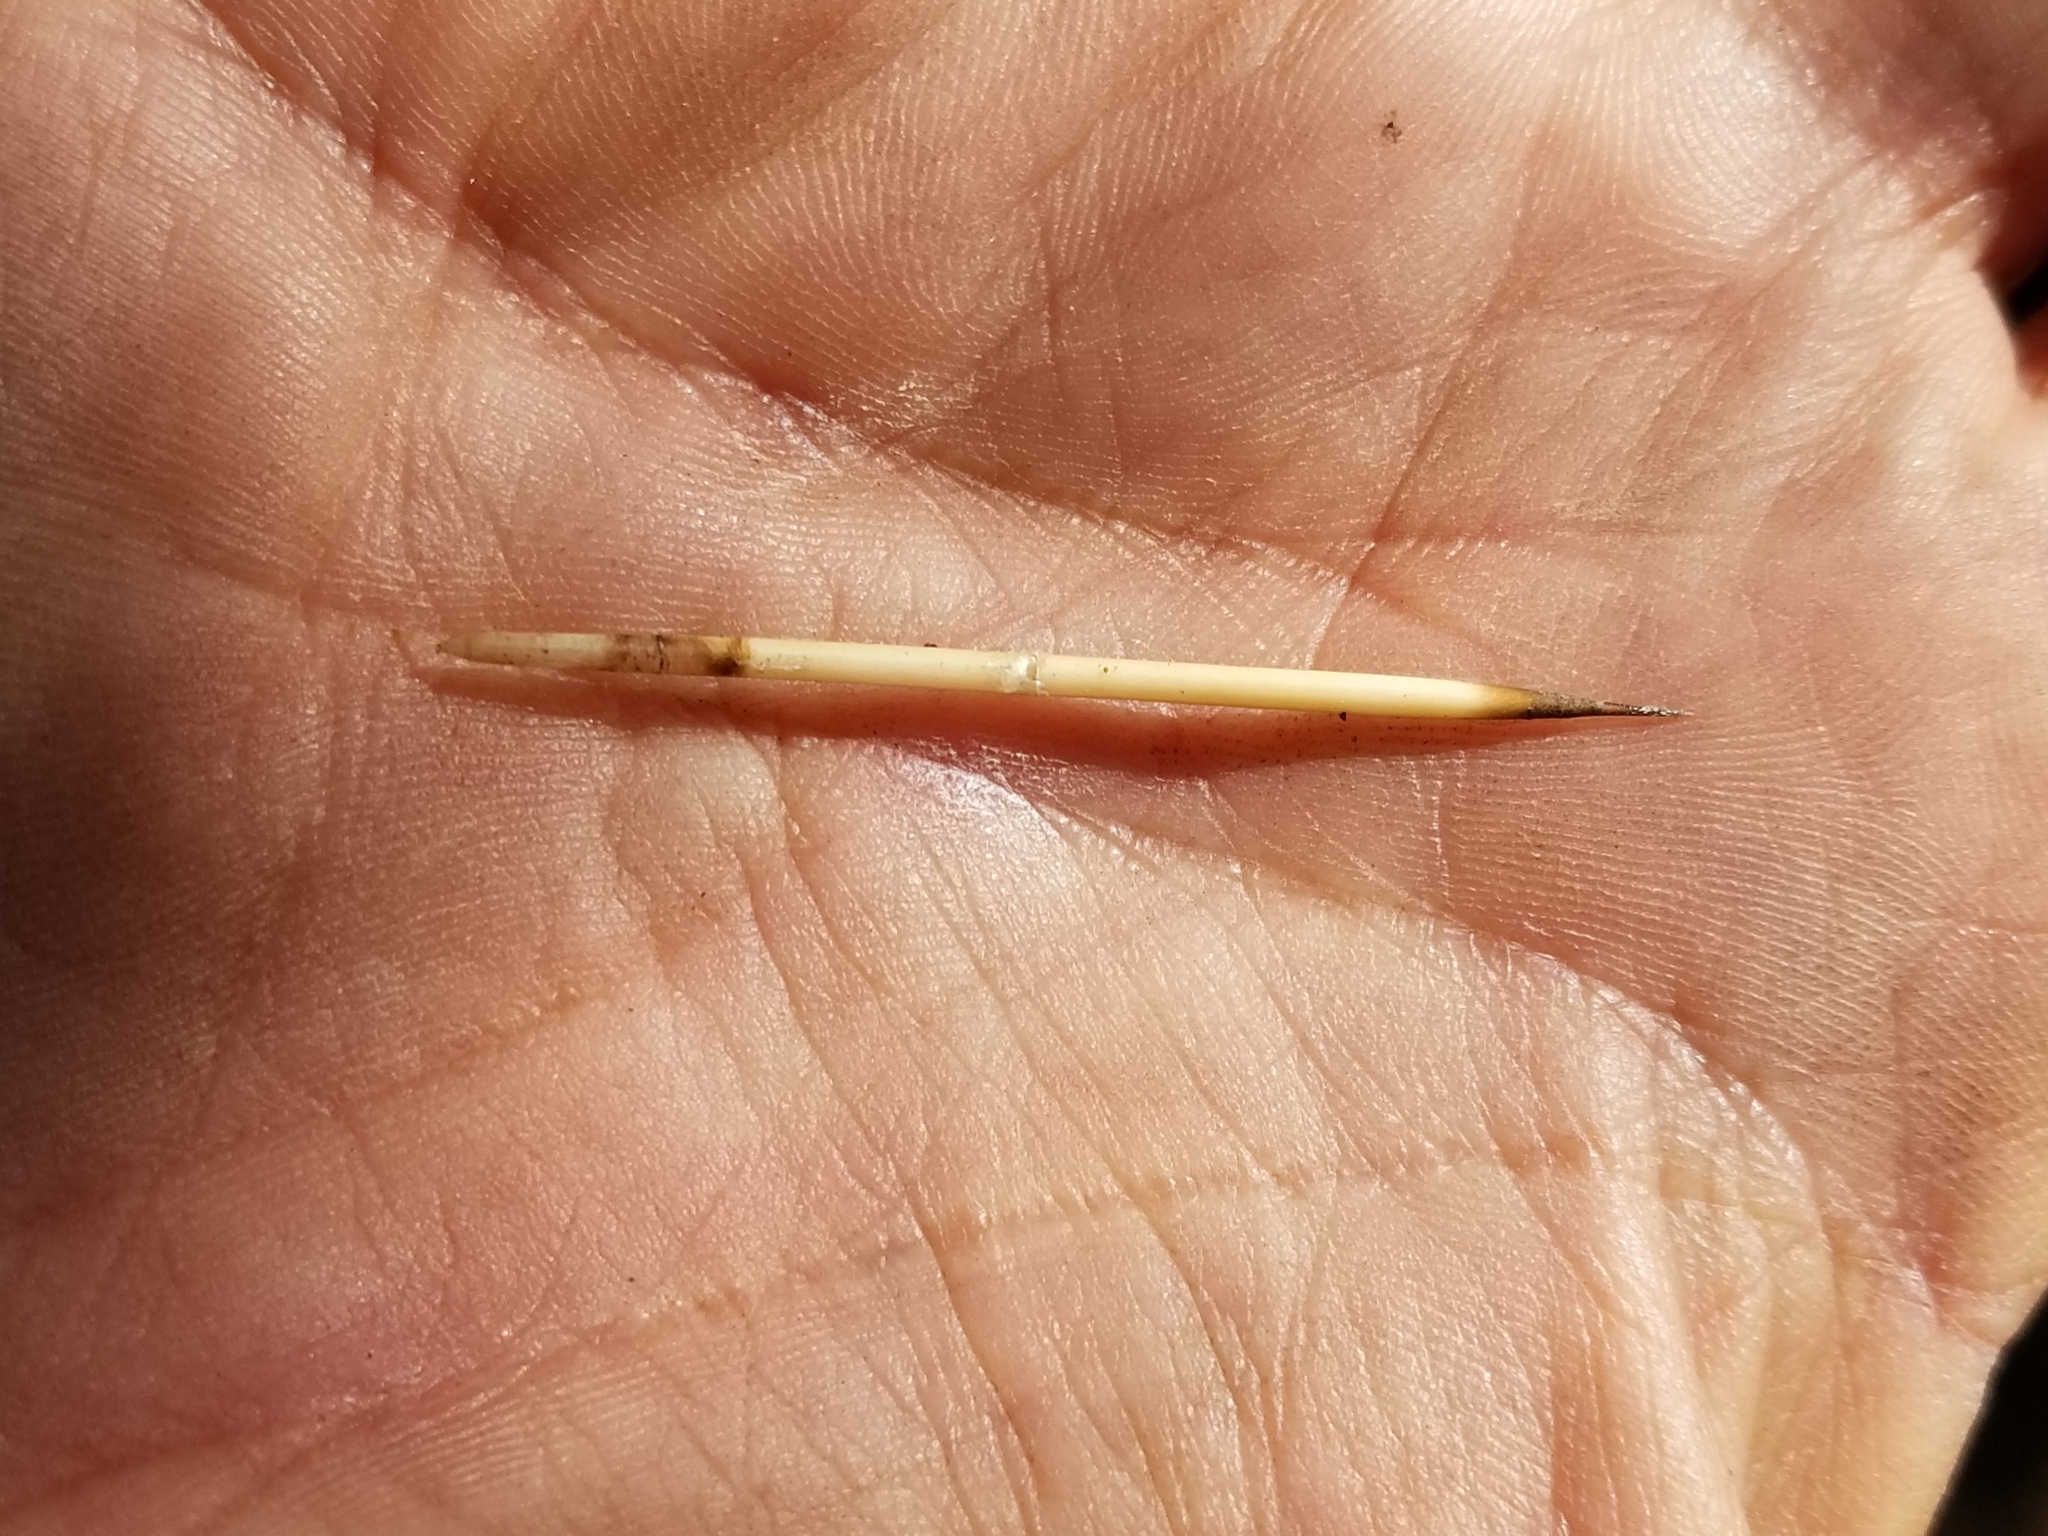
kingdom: Animalia
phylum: Chordata
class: Mammalia
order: Rodentia
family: Erethizontidae
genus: Erethizon
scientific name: Erethizon dorsatus
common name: North american porcupine
